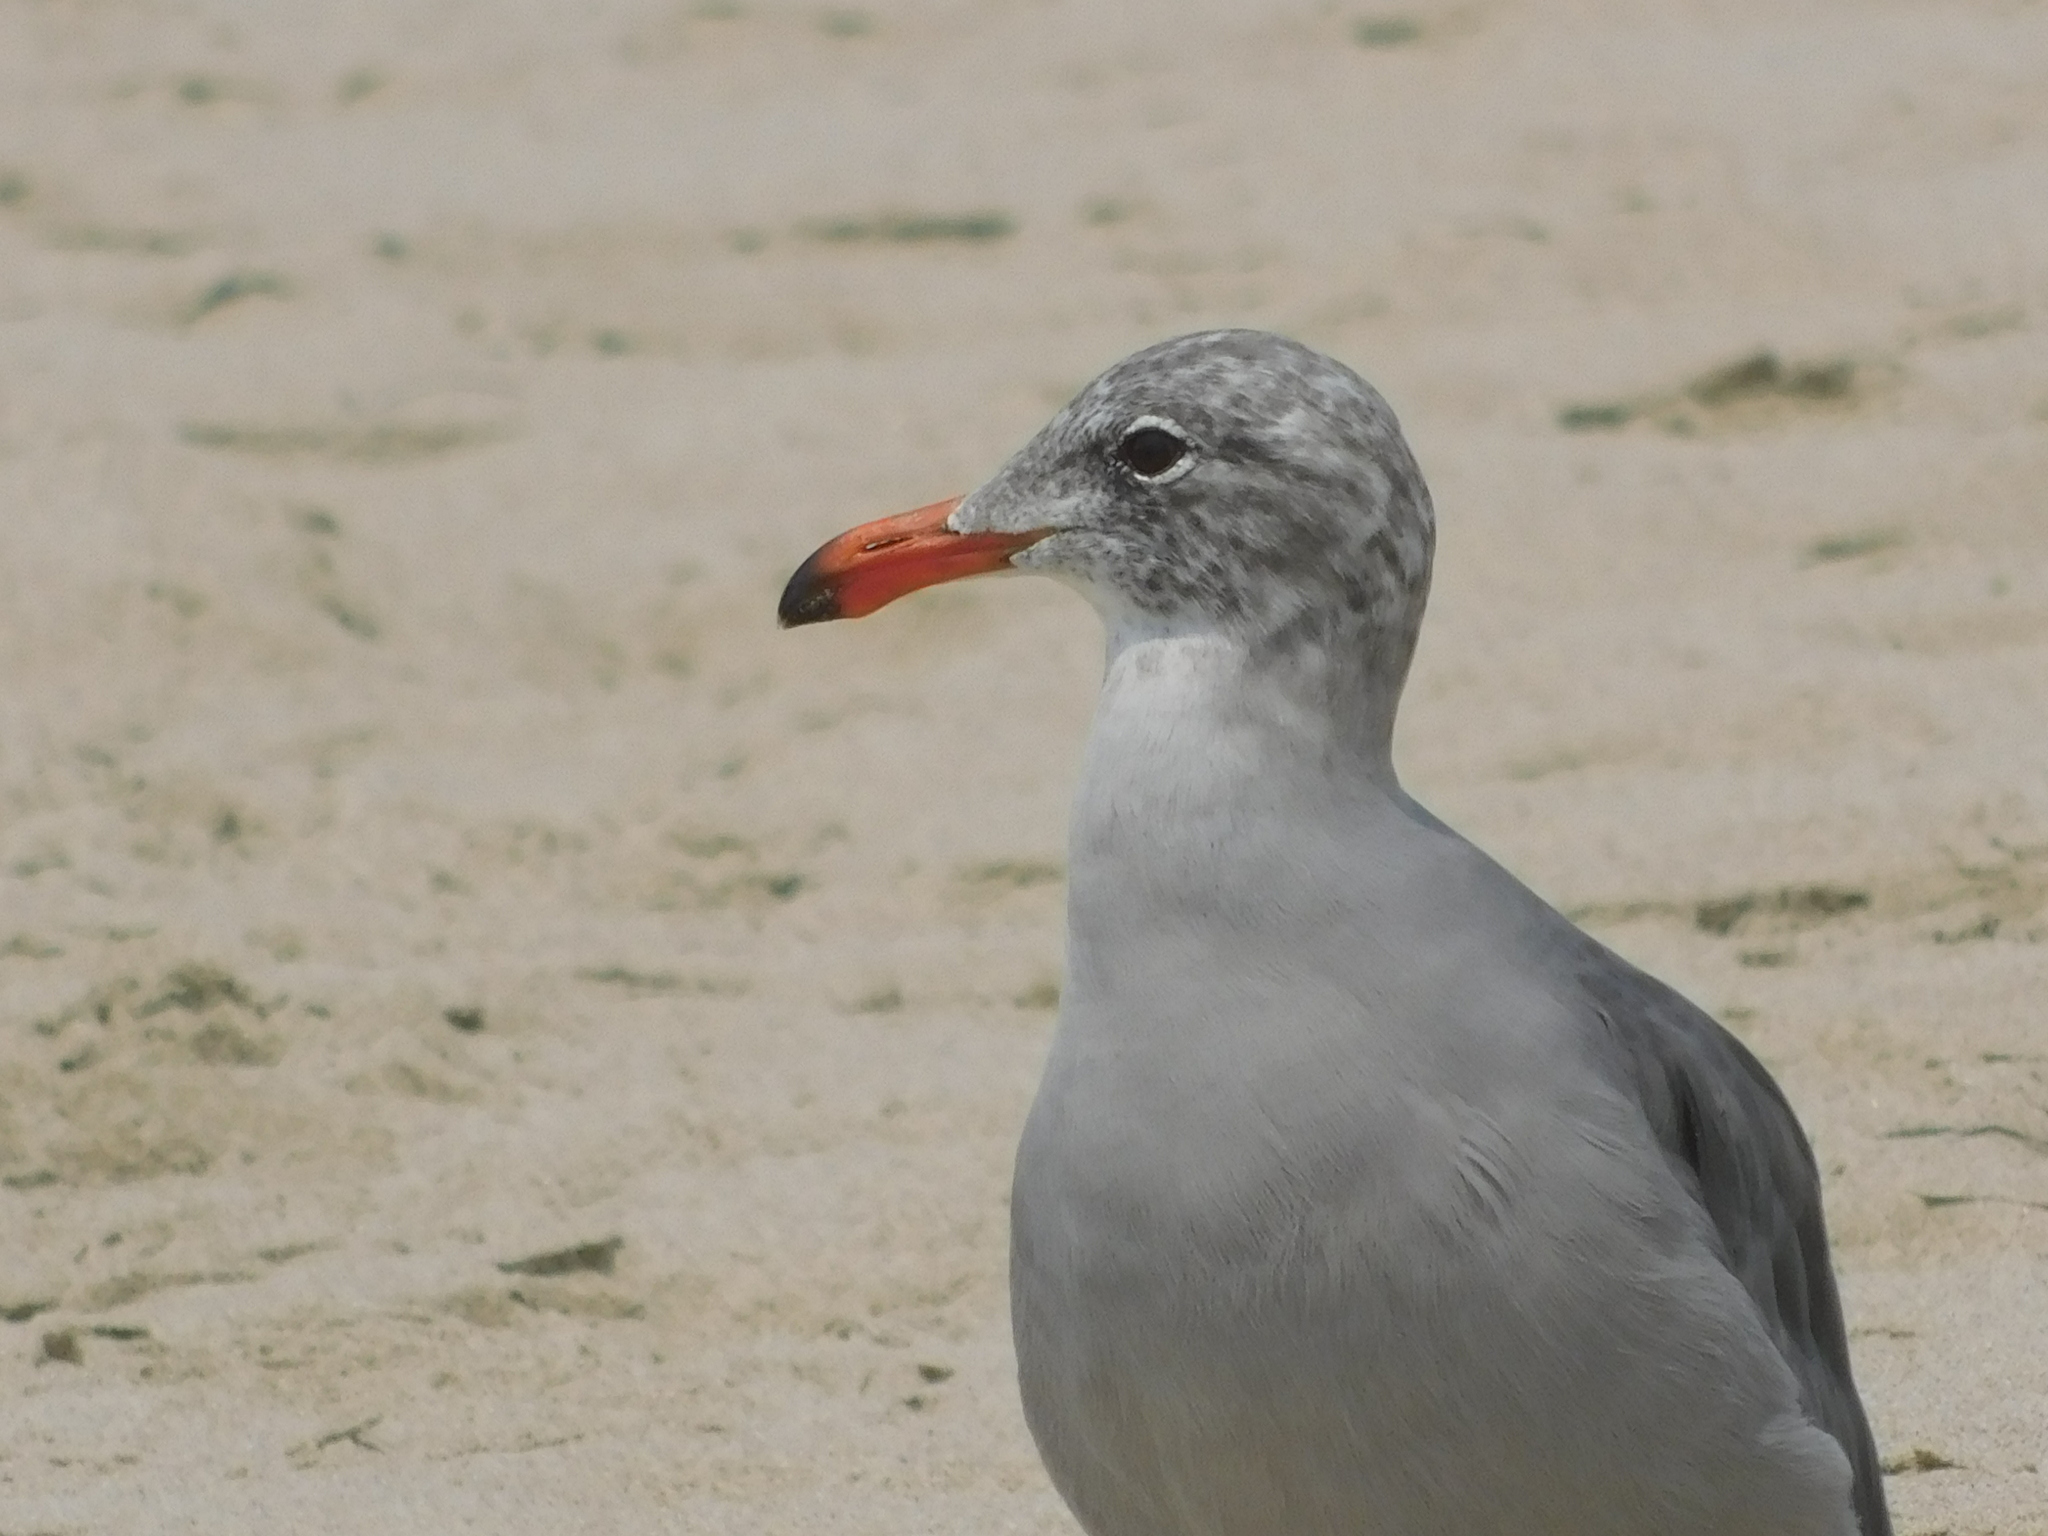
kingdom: Animalia
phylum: Chordata
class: Aves
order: Charadriiformes
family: Laridae
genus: Larus
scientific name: Larus heermanni
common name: Heermann's gull
